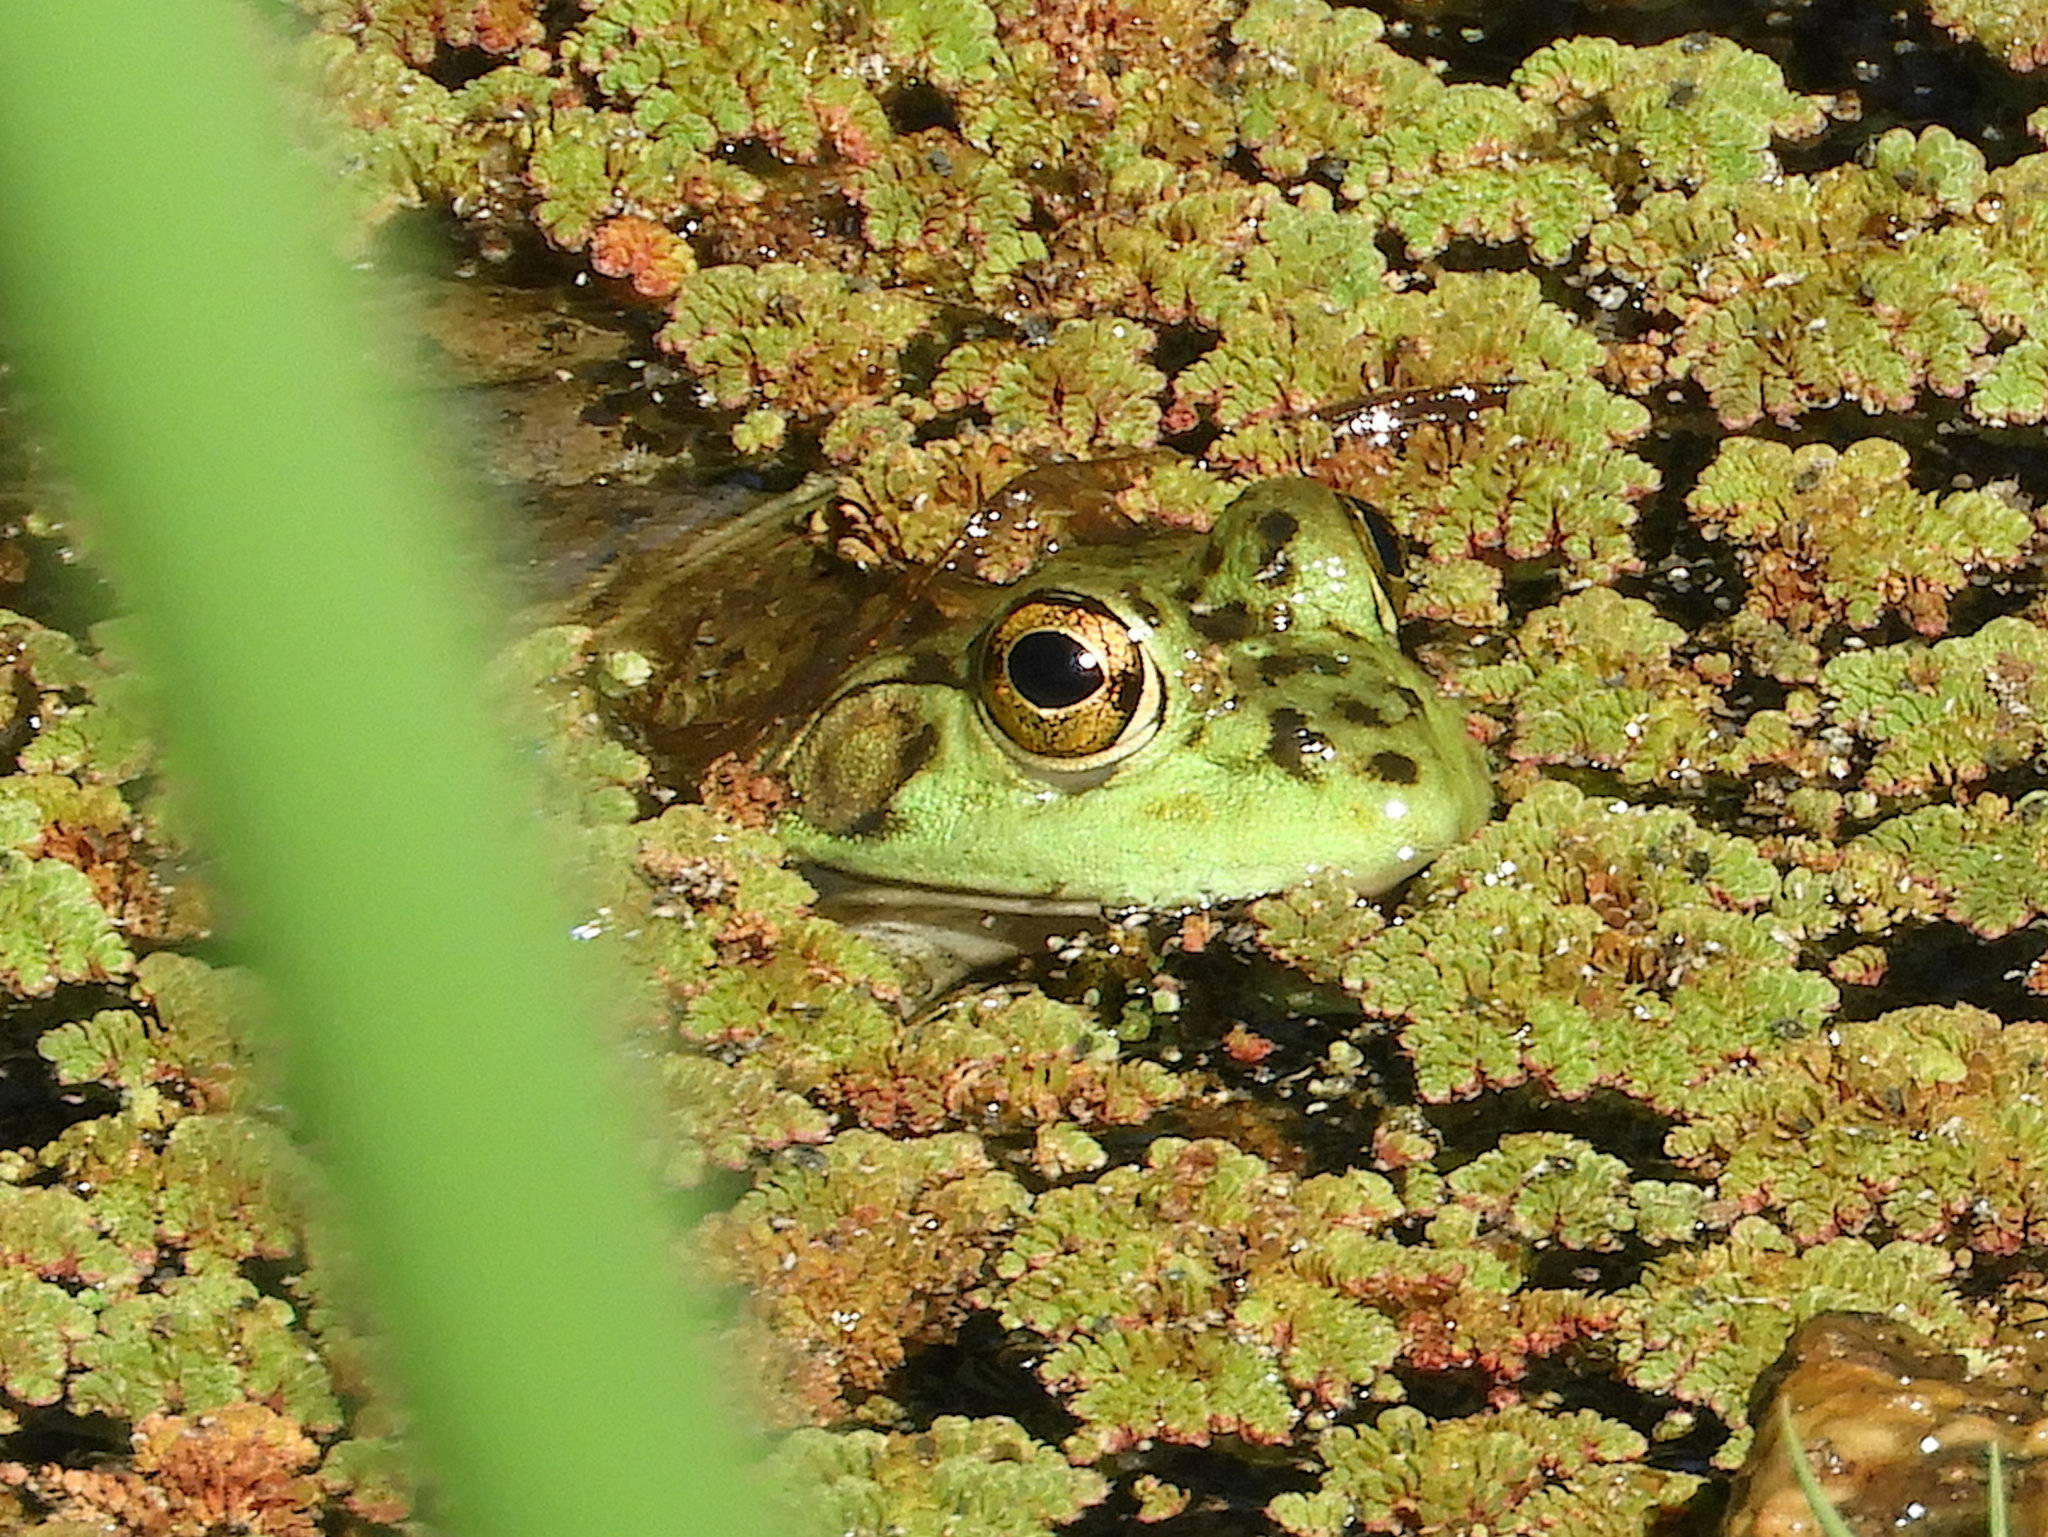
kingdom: Animalia
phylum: Chordata
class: Amphibia
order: Anura
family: Ranidae
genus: Lithobates
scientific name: Lithobates catesbeianus
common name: American bullfrog
